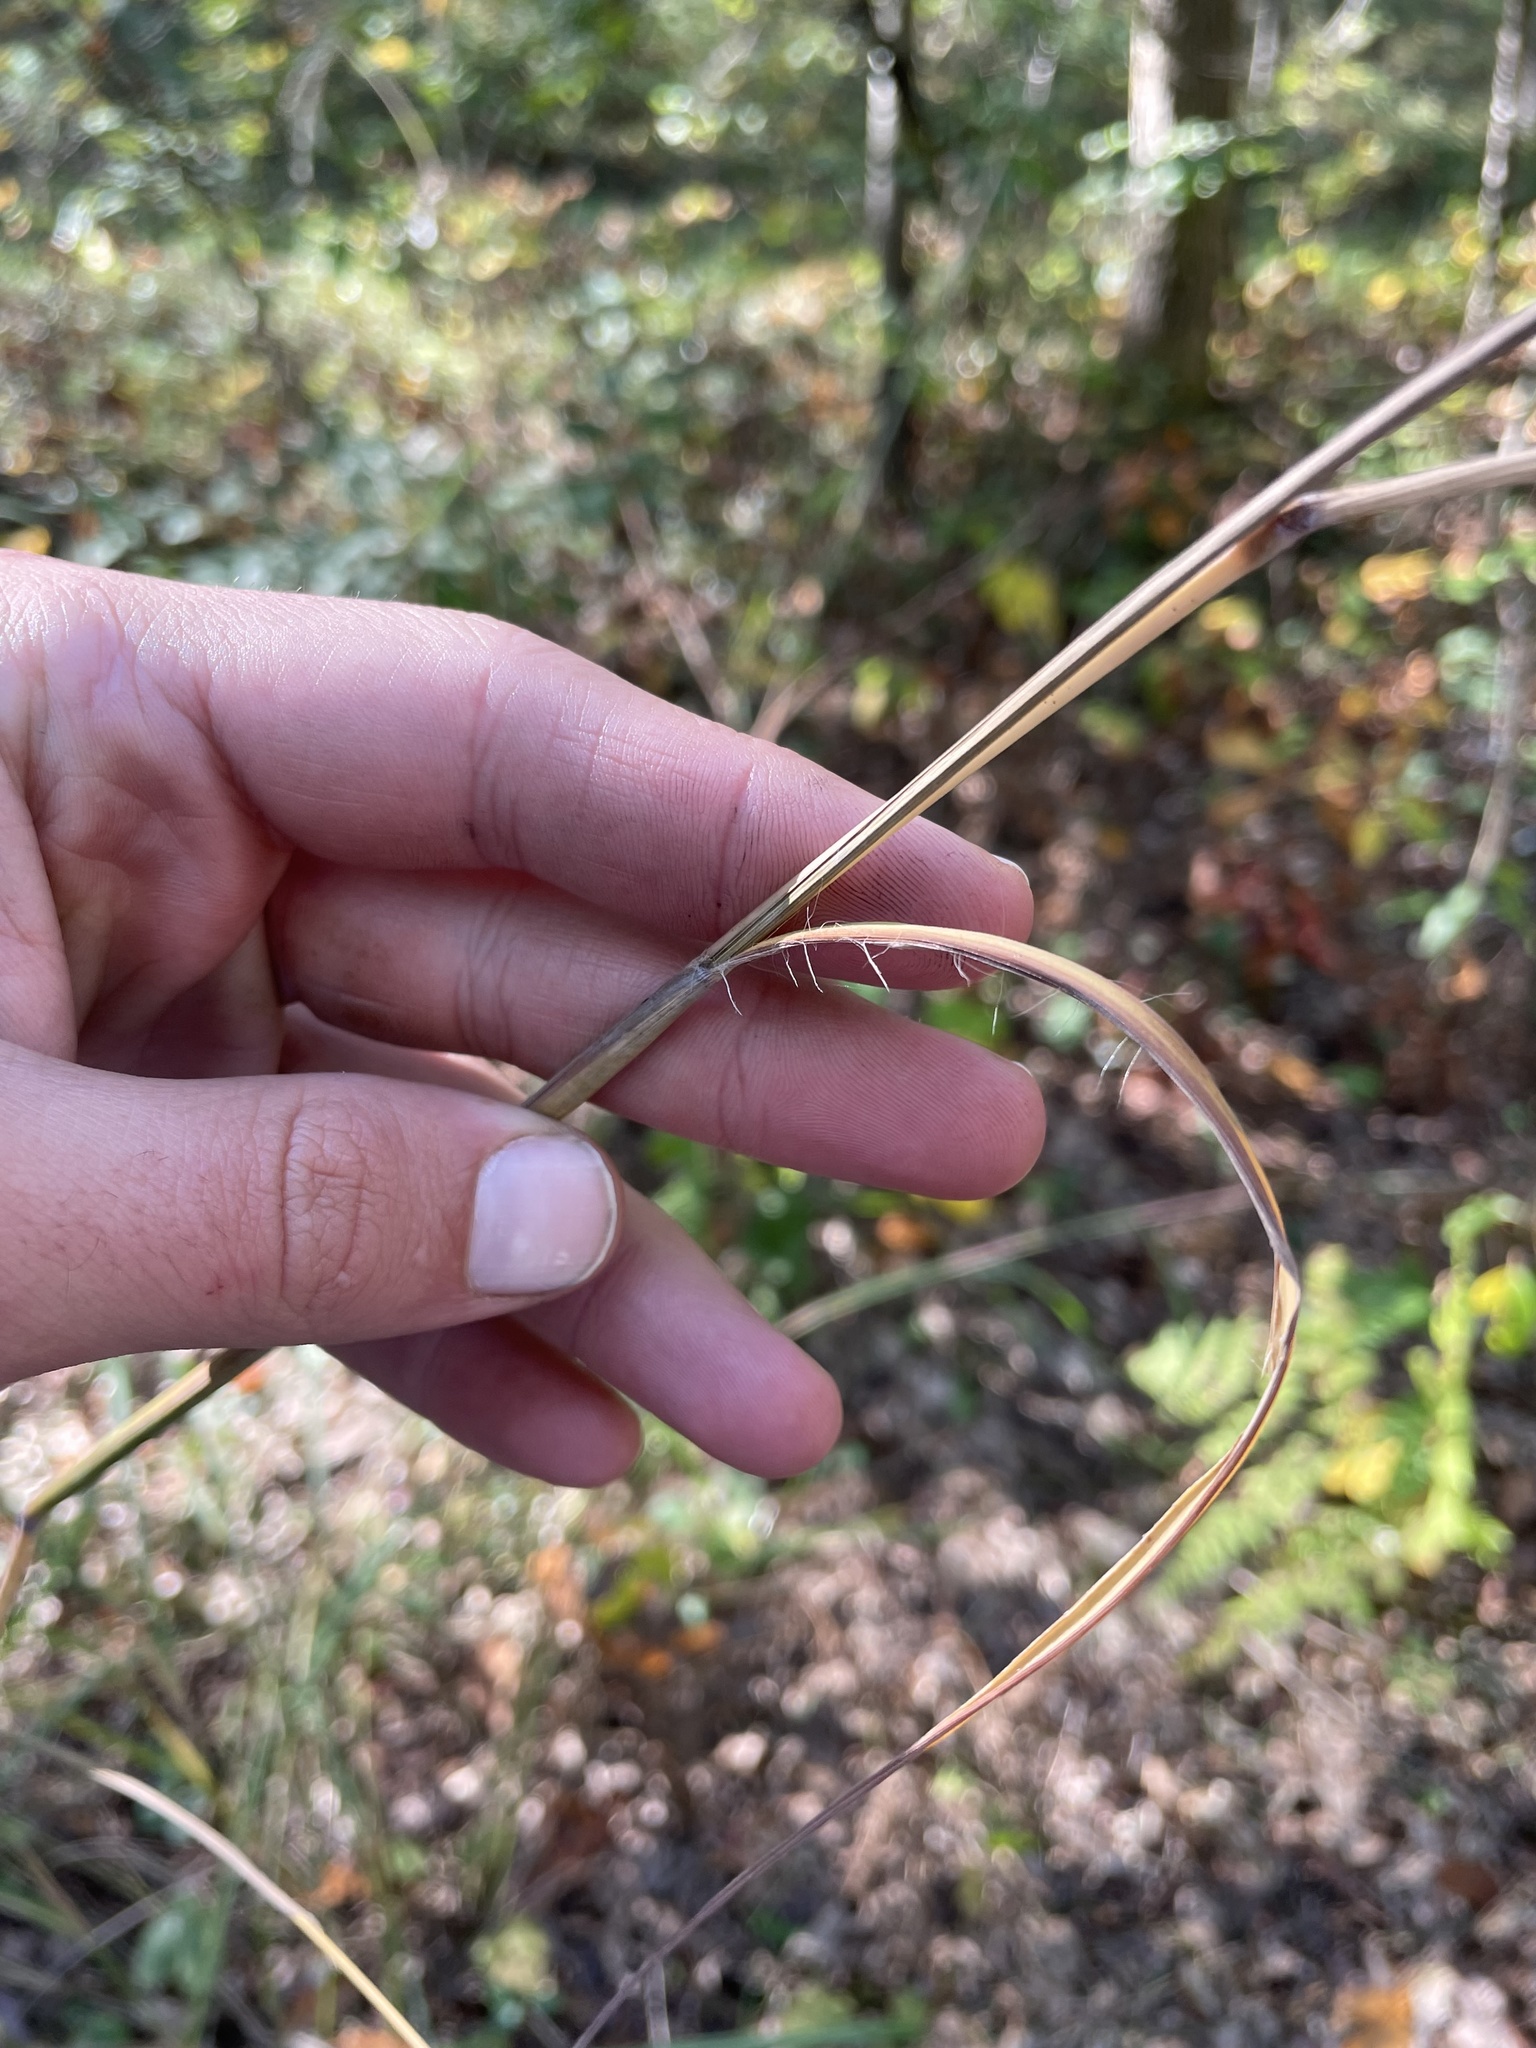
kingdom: Plantae
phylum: Tracheophyta
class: Liliopsida
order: Poales
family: Poaceae
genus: Andropogon
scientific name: Andropogon gerardi
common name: Big bluestem
